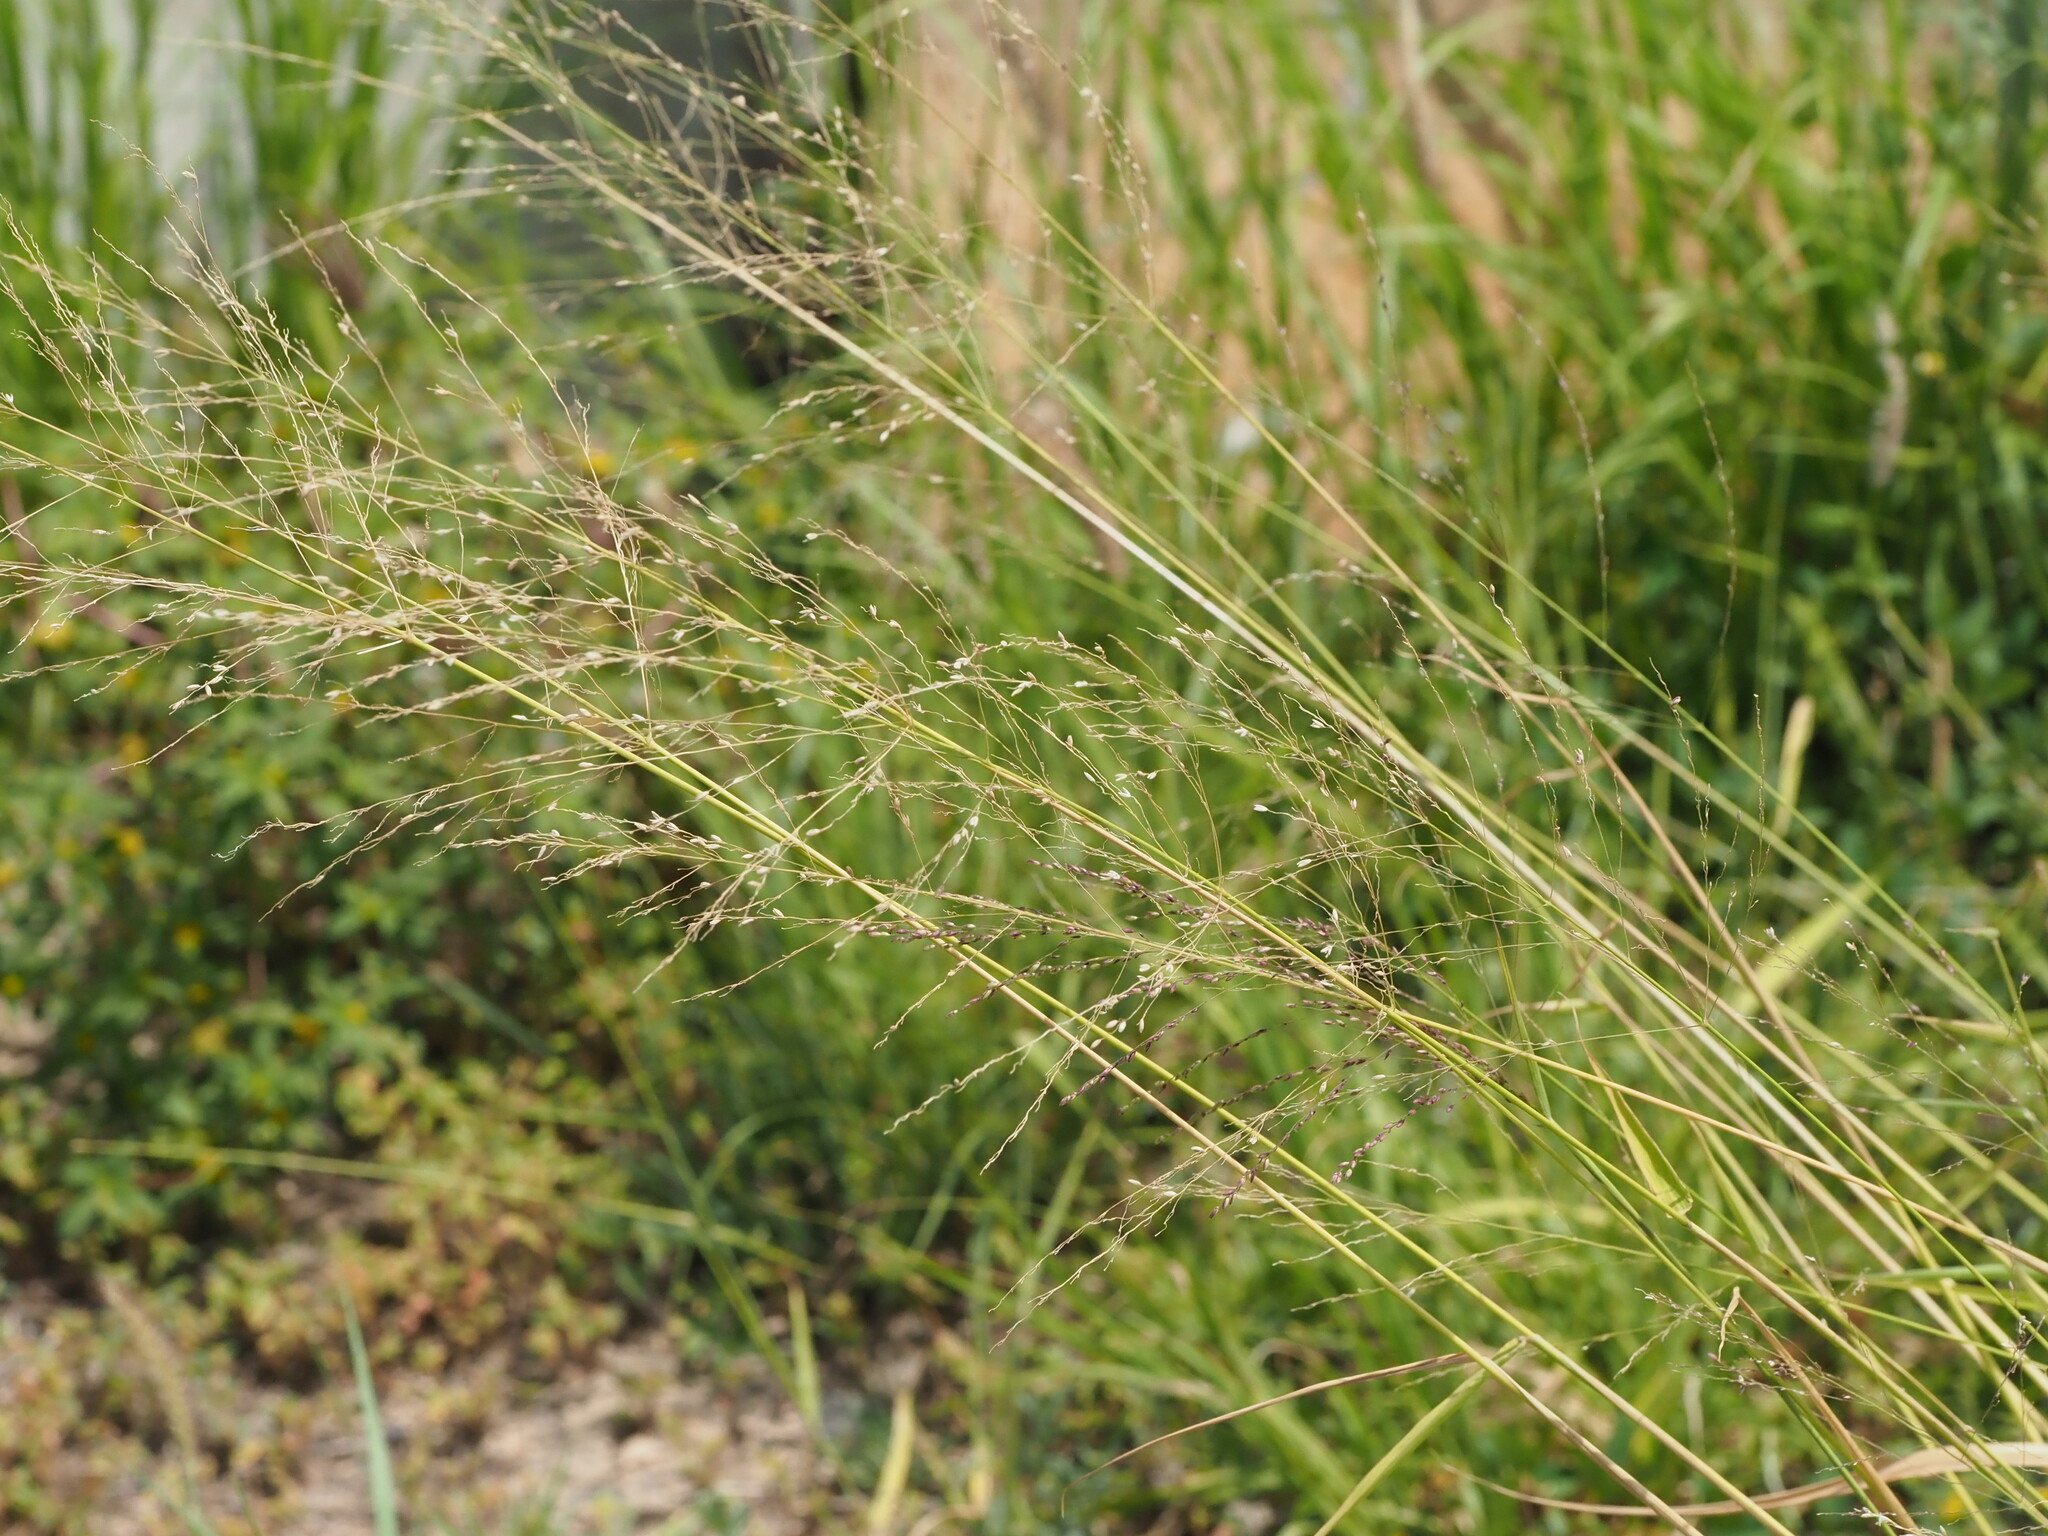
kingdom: Plantae
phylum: Tracheophyta
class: Liliopsida
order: Poales
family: Poaceae
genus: Megathyrsus
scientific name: Megathyrsus maximus
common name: Guineagrass
